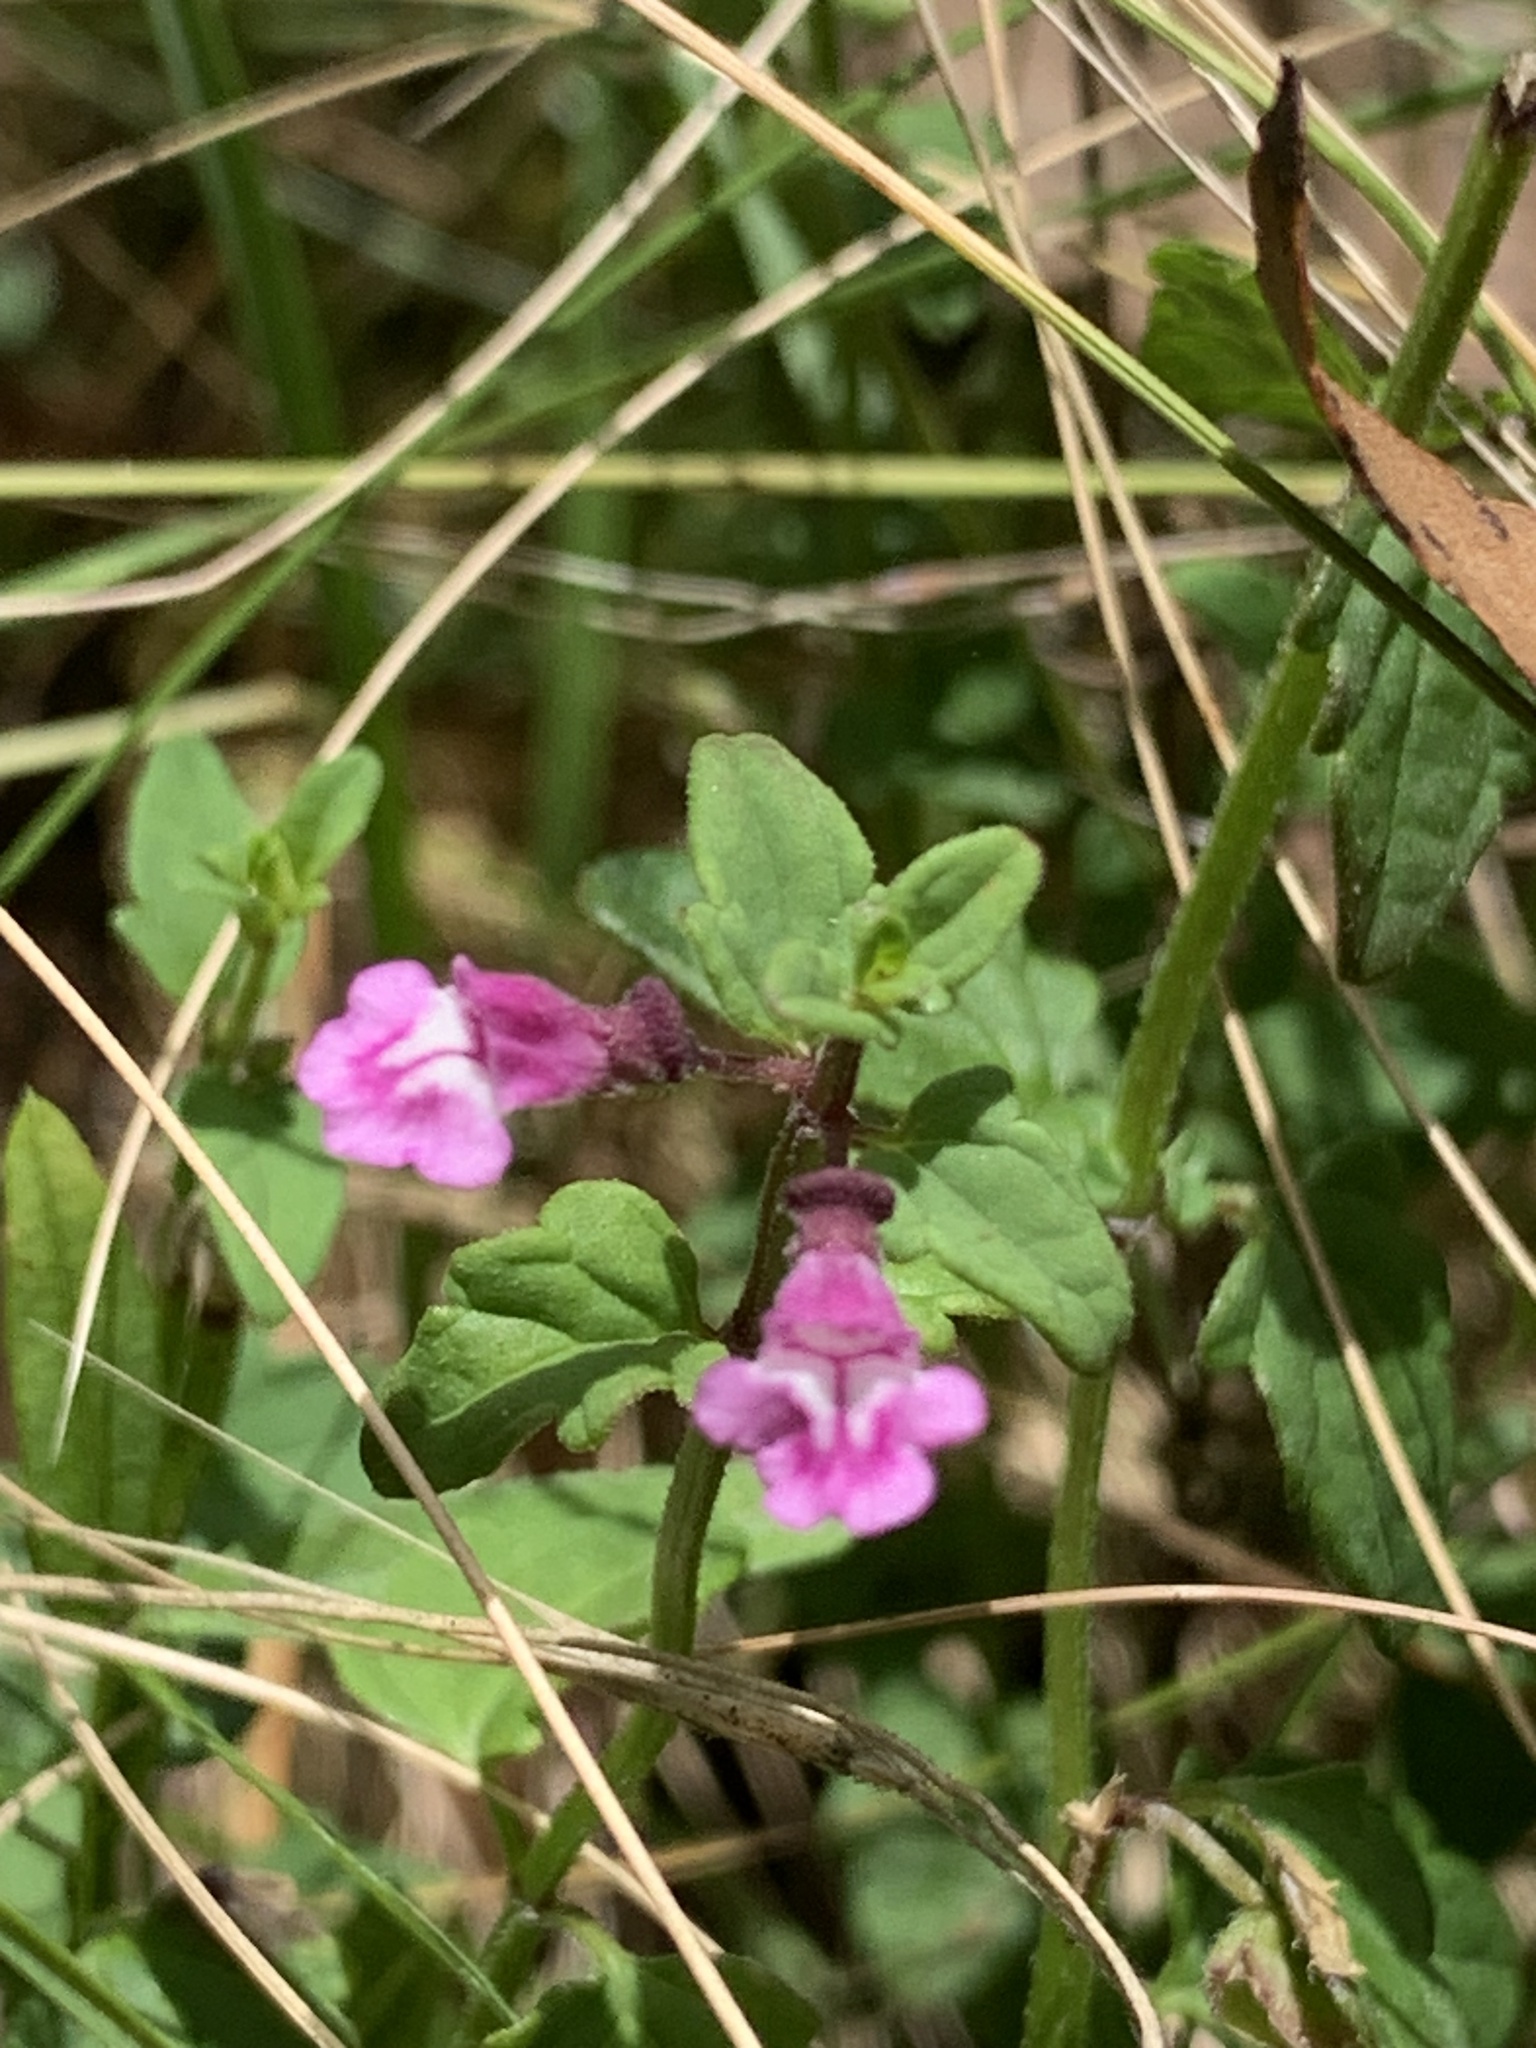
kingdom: Plantae
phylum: Tracheophyta
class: Magnoliopsida
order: Lamiales
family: Lamiaceae
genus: Scutellaria
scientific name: Scutellaria humilis
